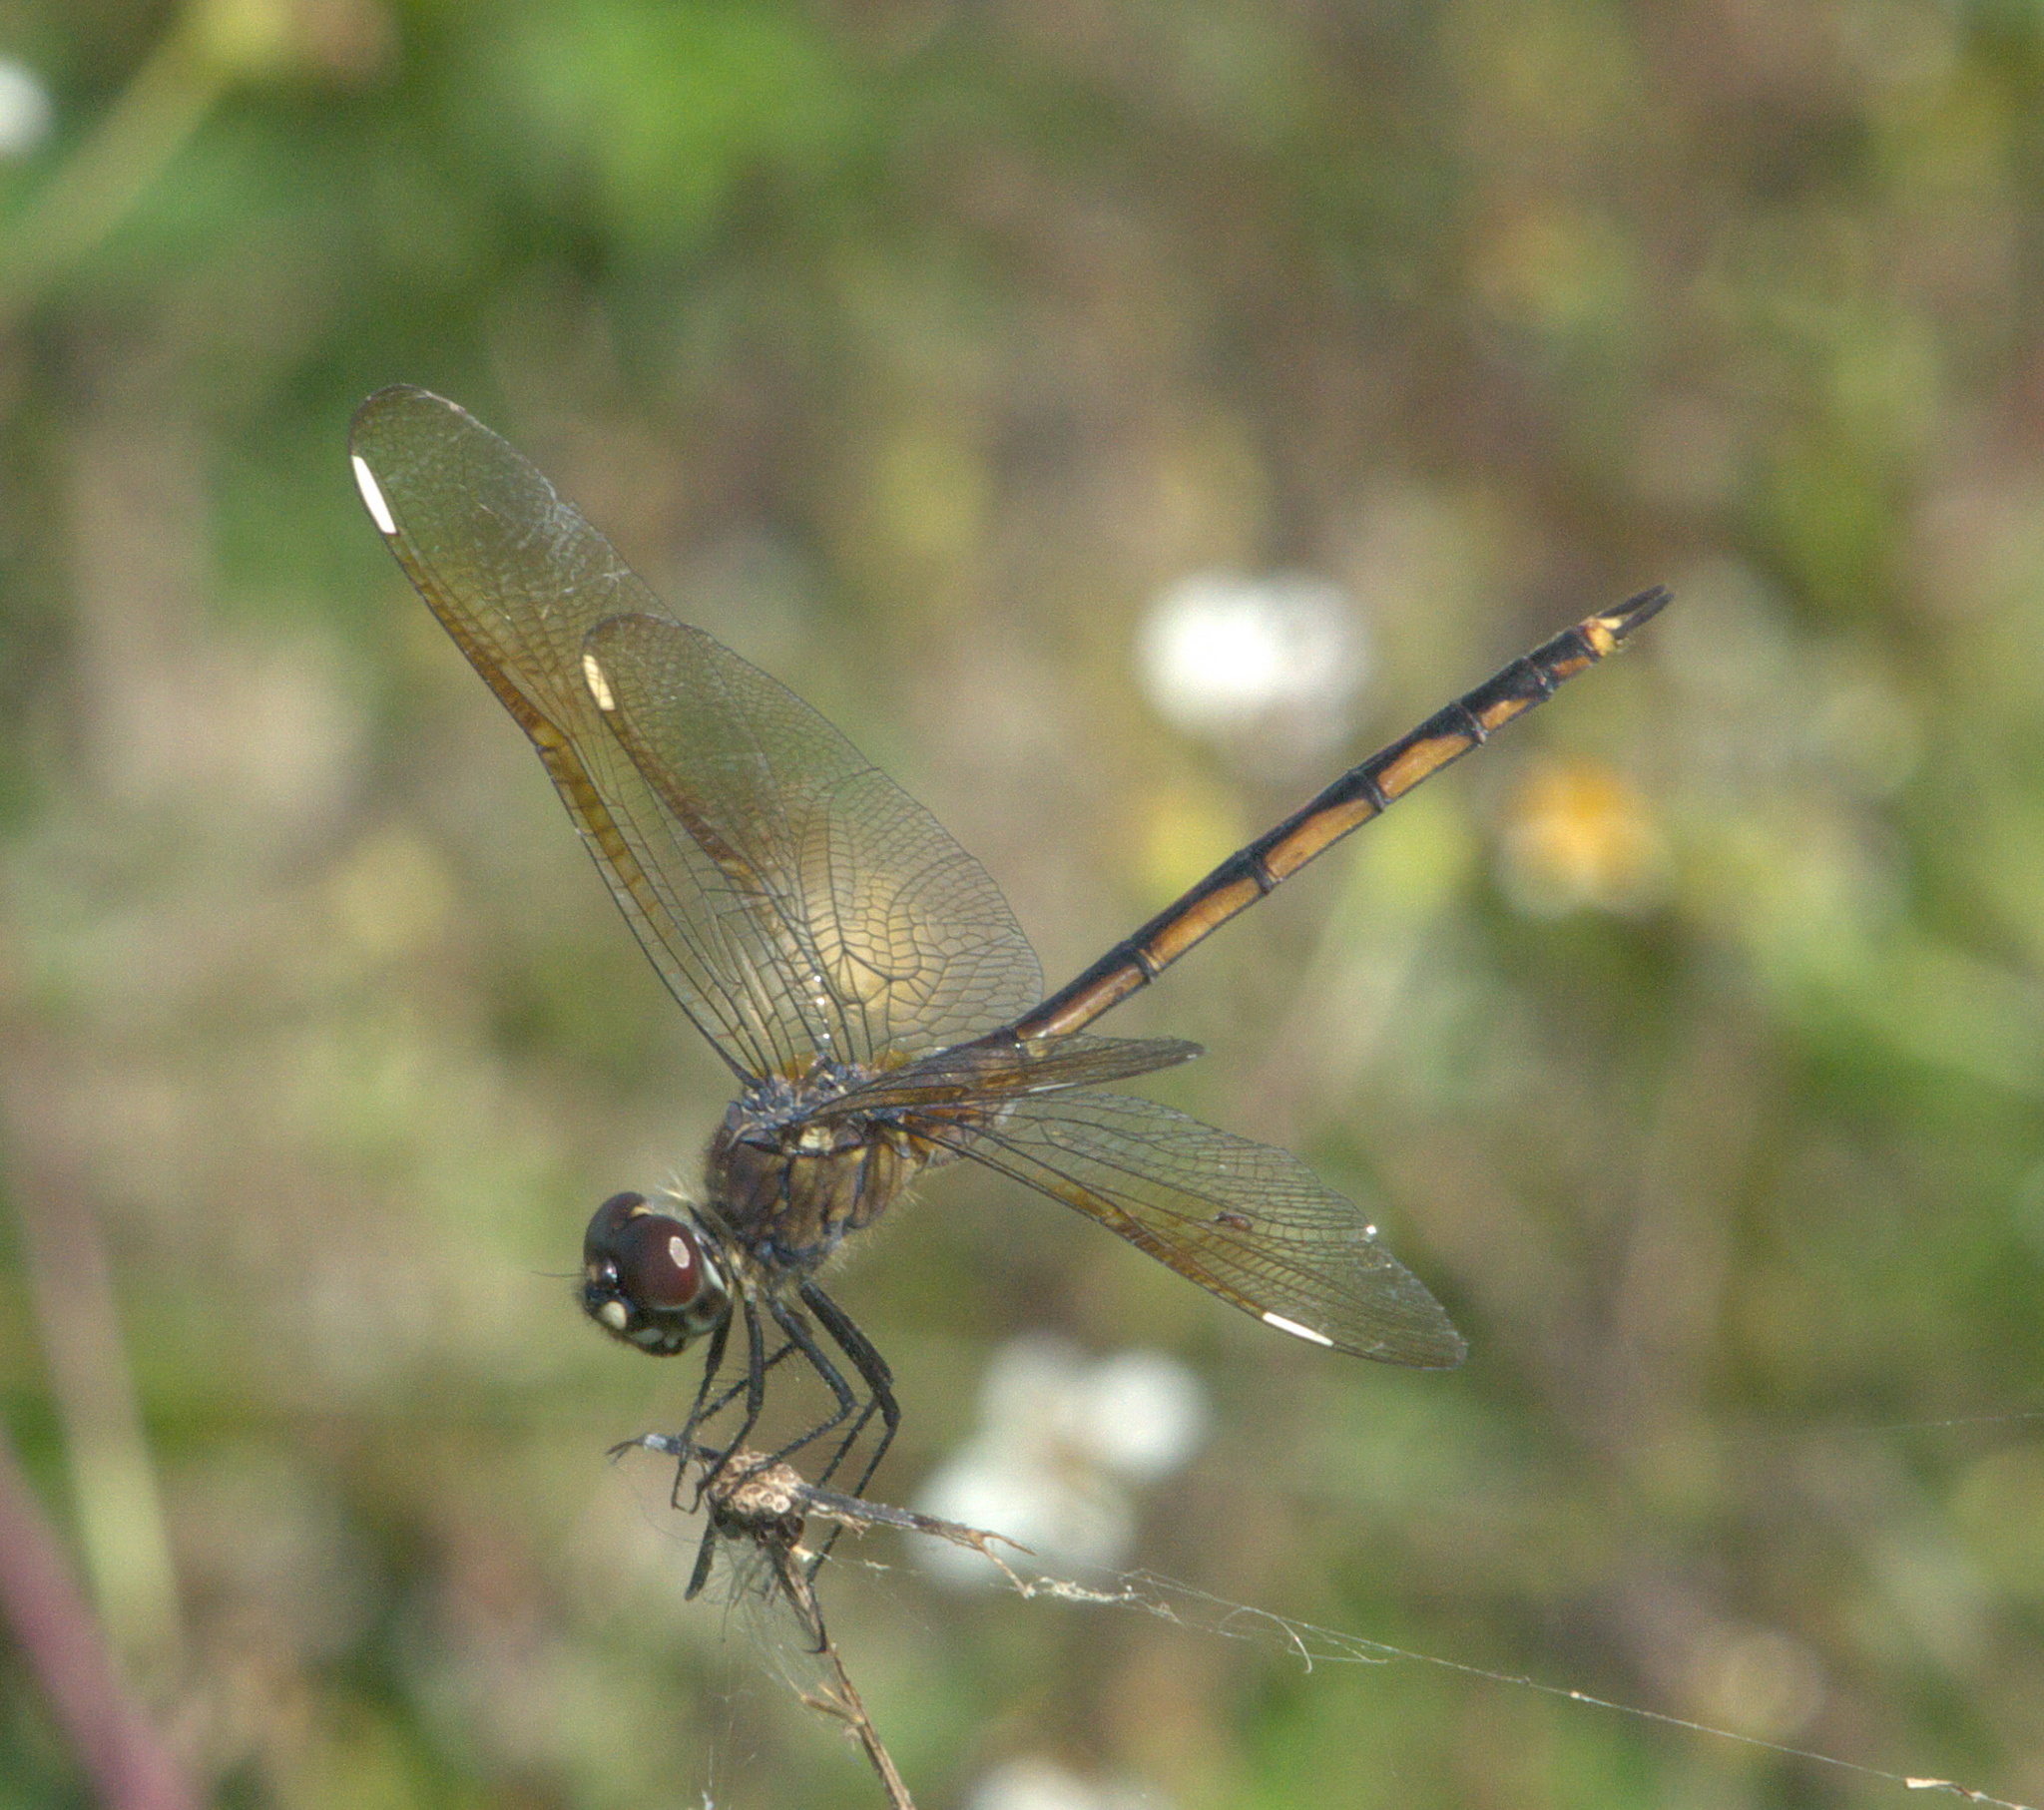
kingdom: Animalia
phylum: Arthropoda
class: Insecta
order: Odonata
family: Libellulidae
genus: Brachymesia
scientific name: Brachymesia gravida
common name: Four-spotted pennant
